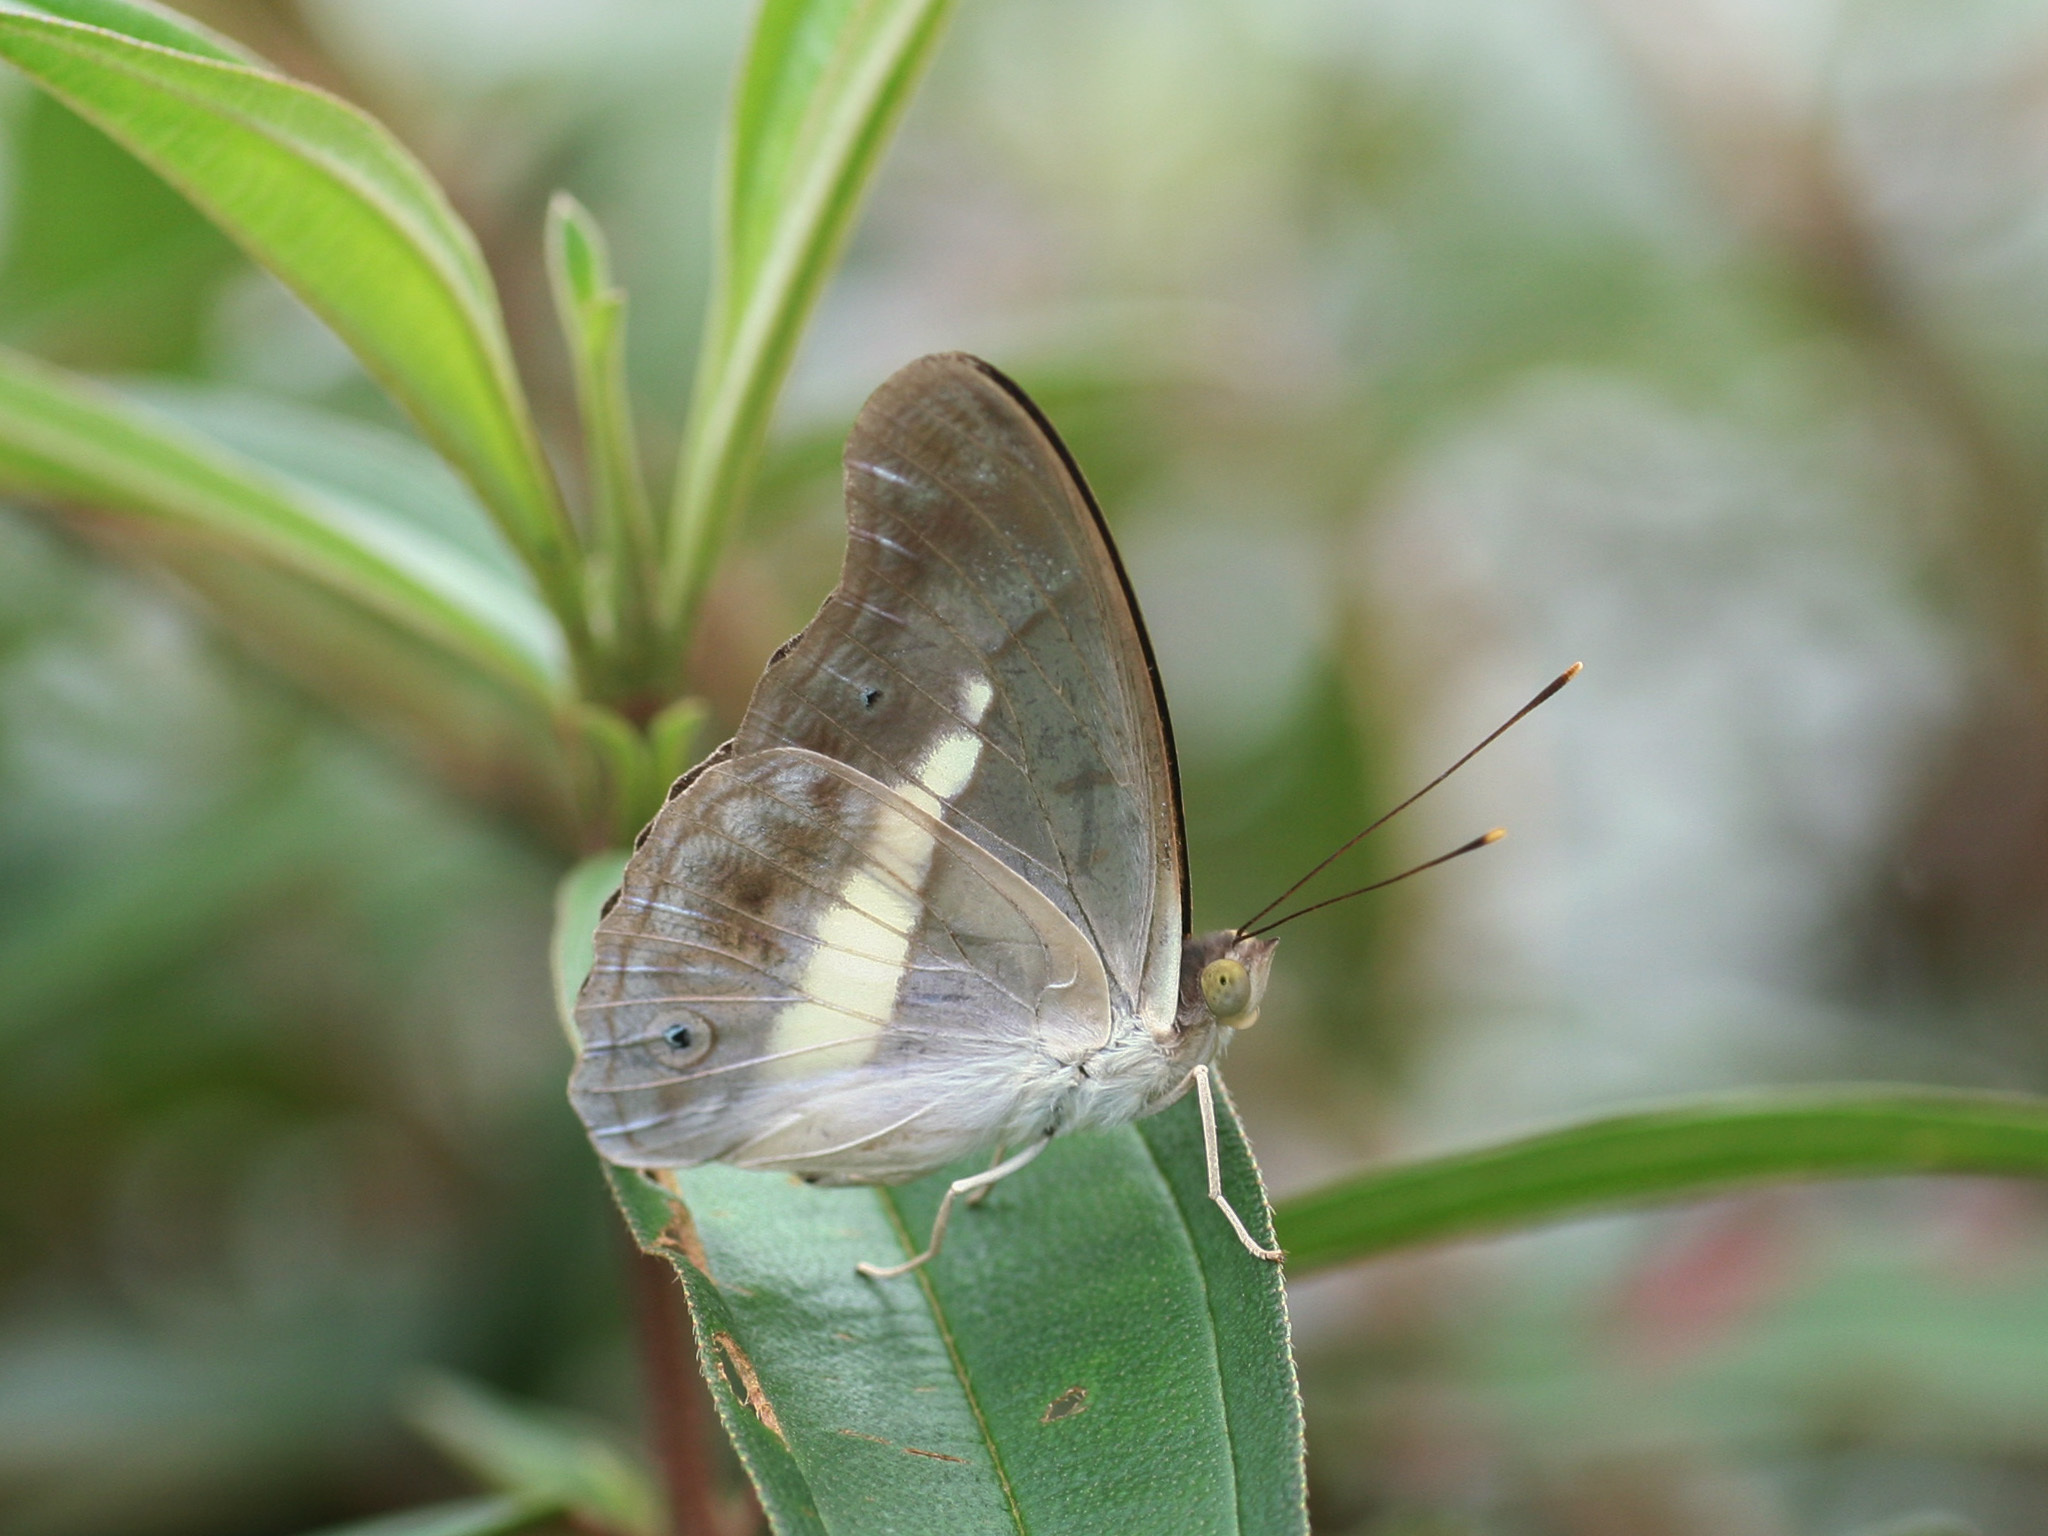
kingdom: Animalia
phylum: Arthropoda
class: Insecta
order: Lepidoptera
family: Nymphalidae
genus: Eulaceura
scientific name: Eulaceura osteria
